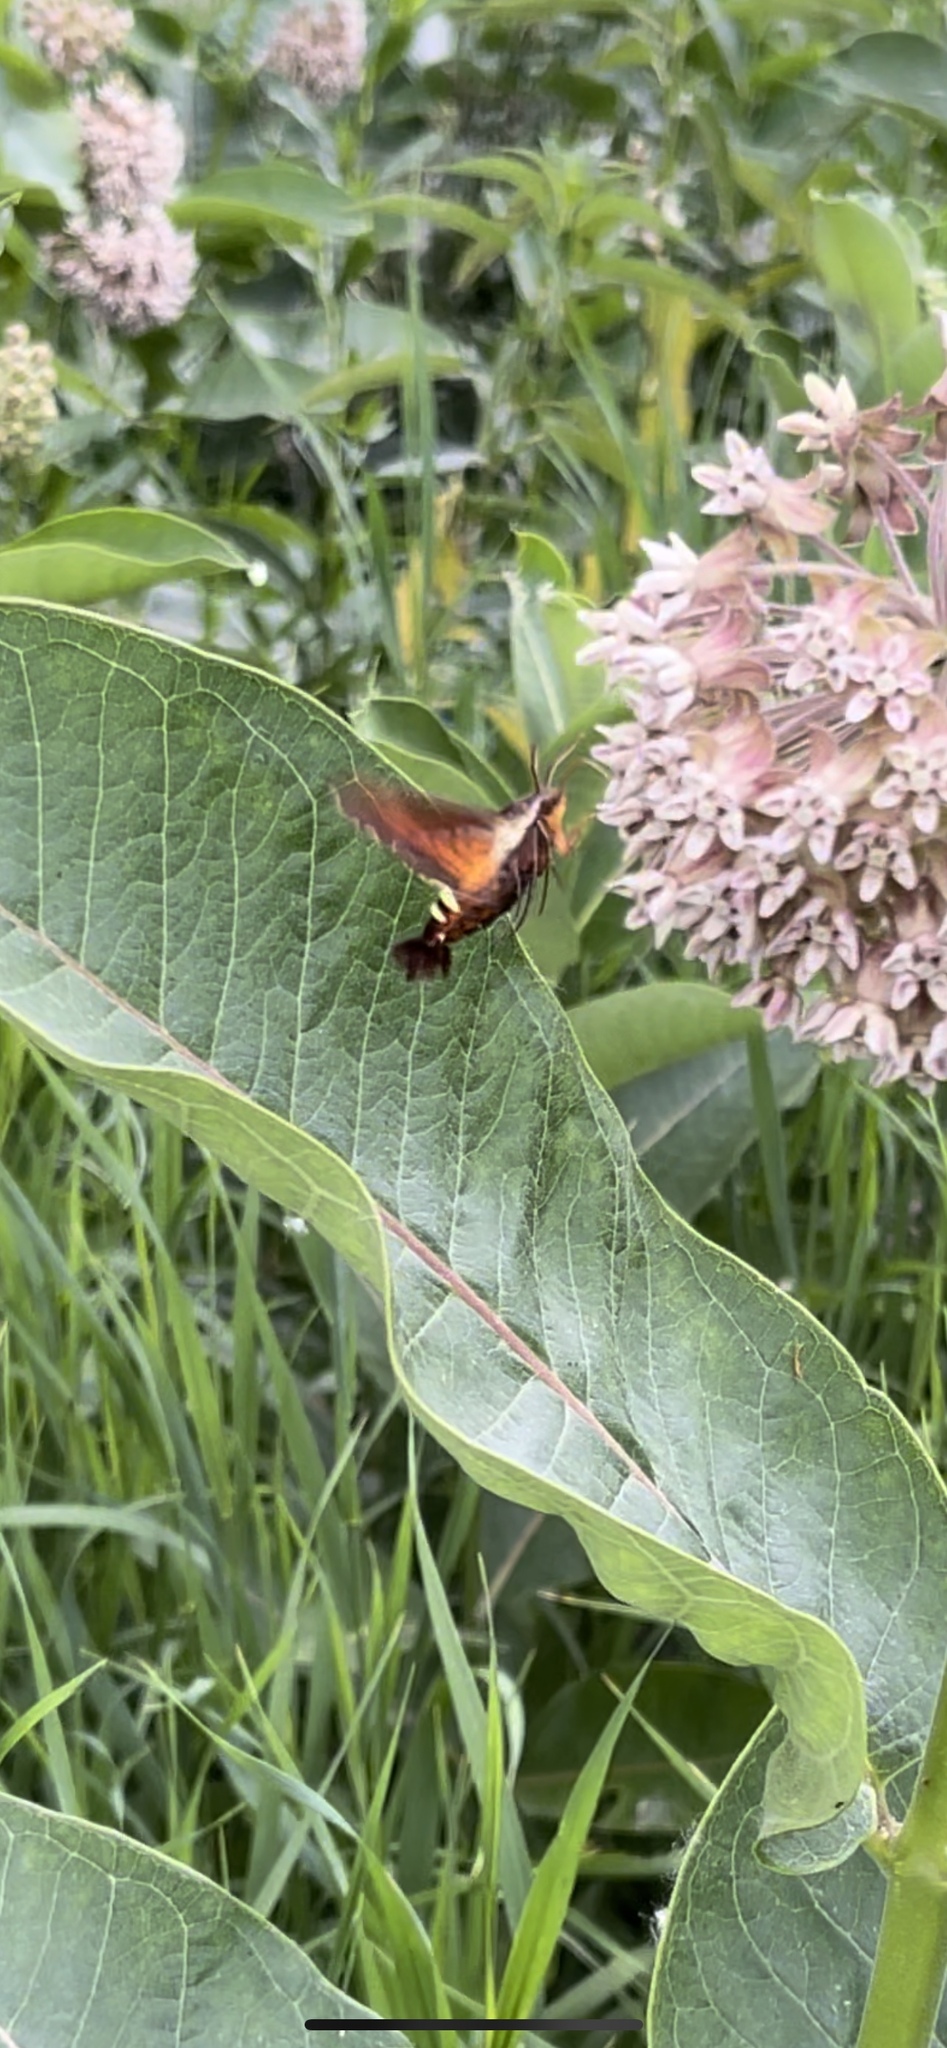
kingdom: Animalia
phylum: Arthropoda
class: Insecta
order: Lepidoptera
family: Sphingidae
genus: Amphion
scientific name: Amphion floridensis
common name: Nessus sphinx
